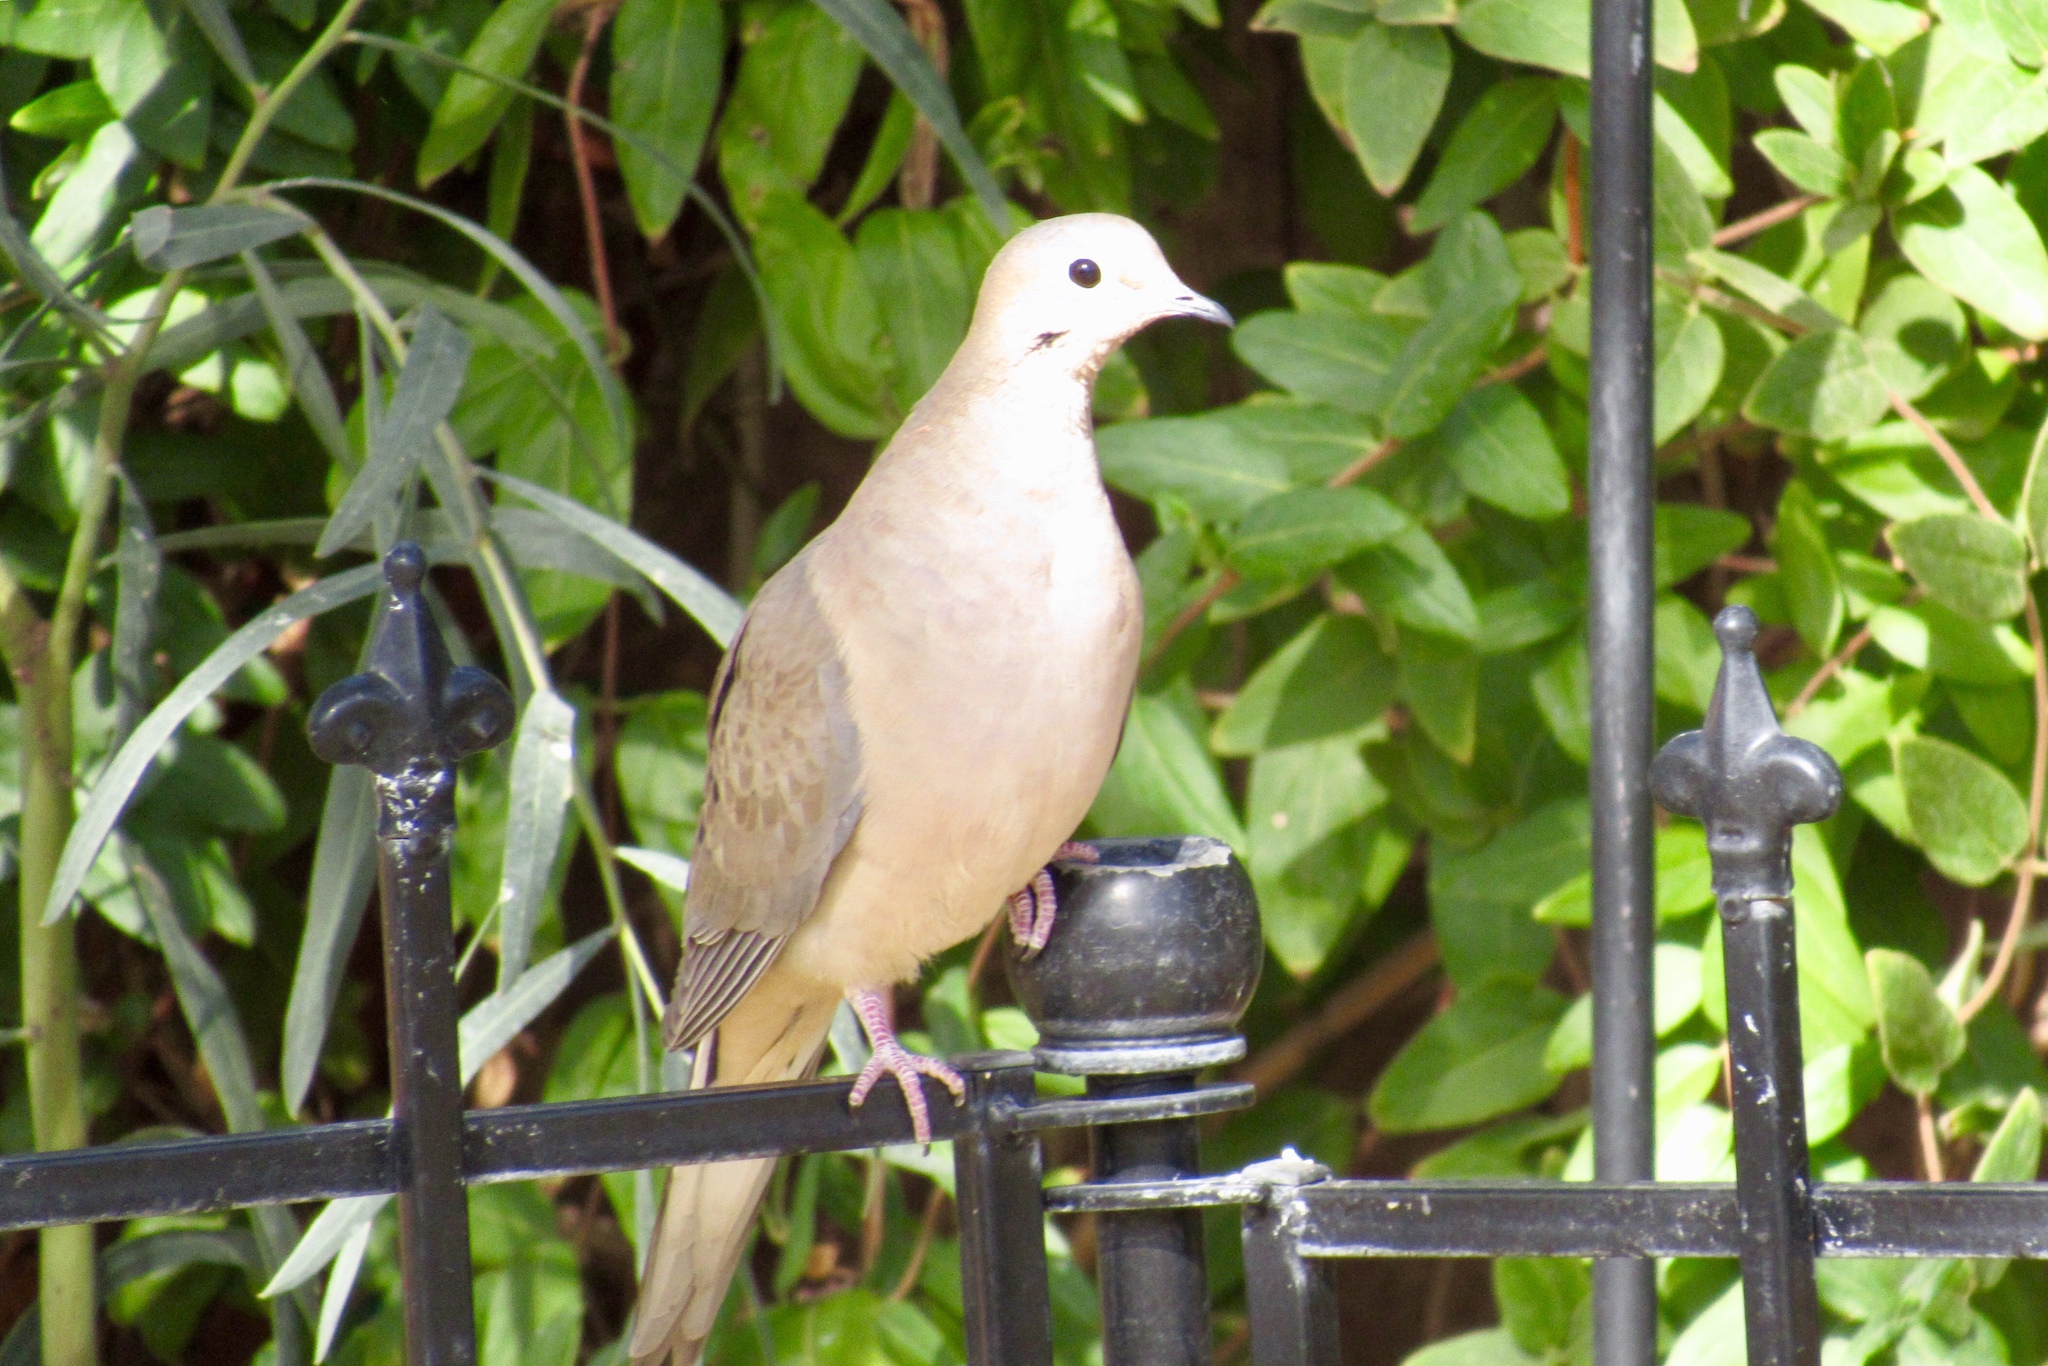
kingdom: Animalia
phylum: Chordata
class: Aves
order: Columbiformes
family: Columbidae
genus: Zenaida
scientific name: Zenaida macroura
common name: Mourning dove
